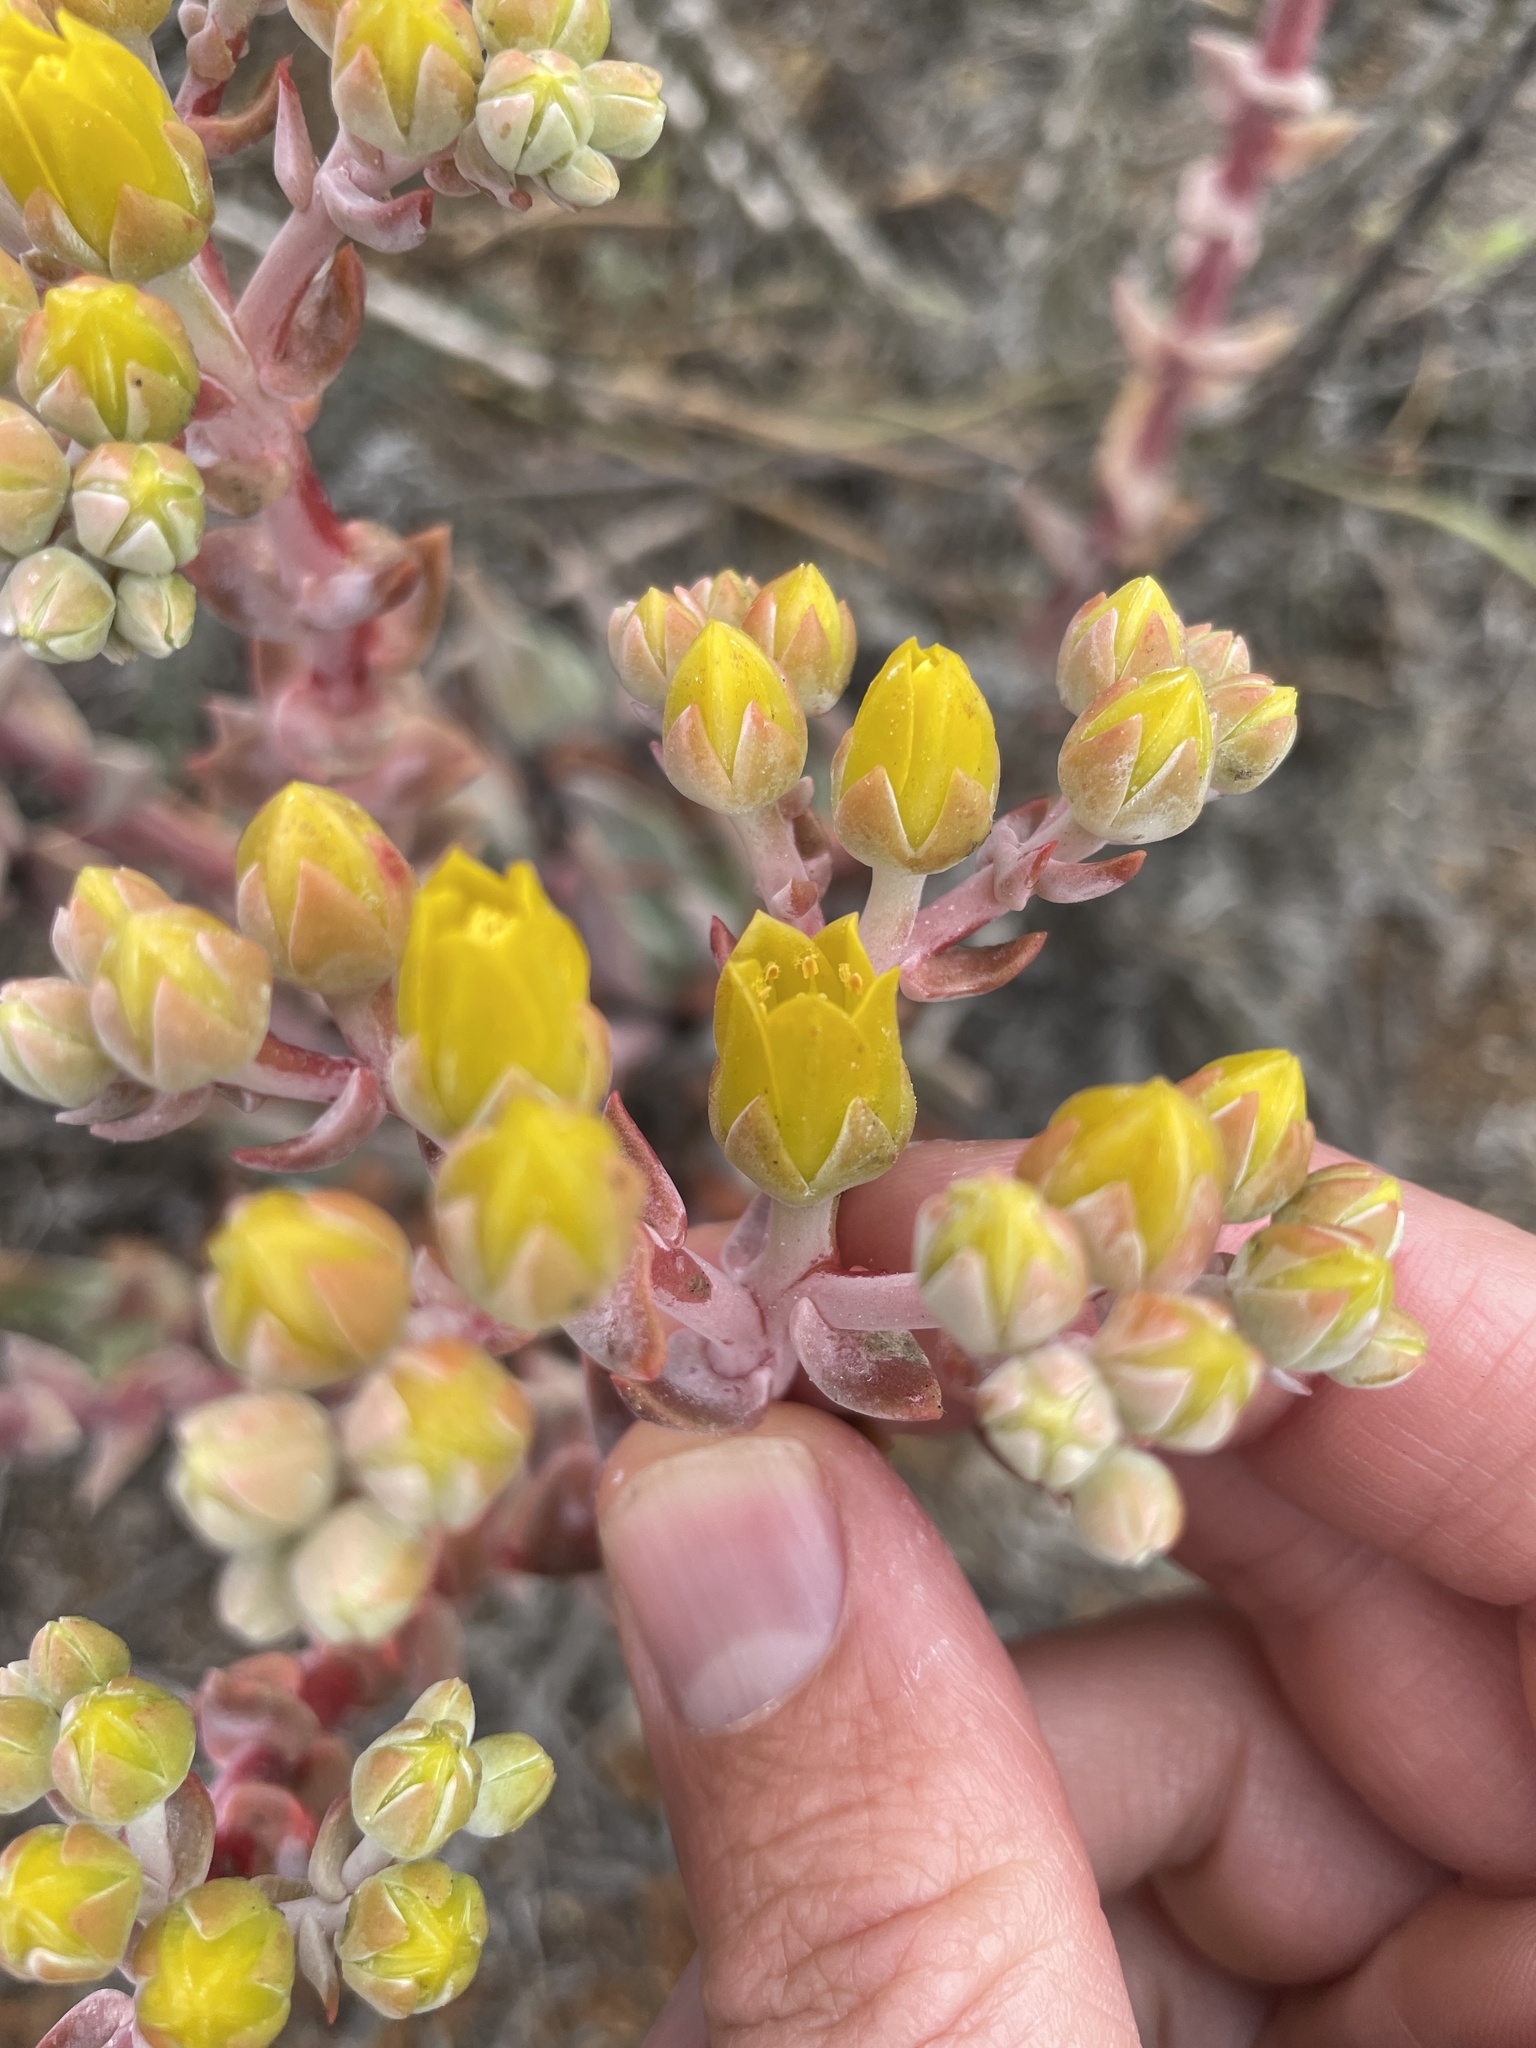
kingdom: Plantae
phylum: Tracheophyta
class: Magnoliopsida
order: Saxifragales
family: Crassulaceae
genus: Dudleya
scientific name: Dudleya caespitosa
